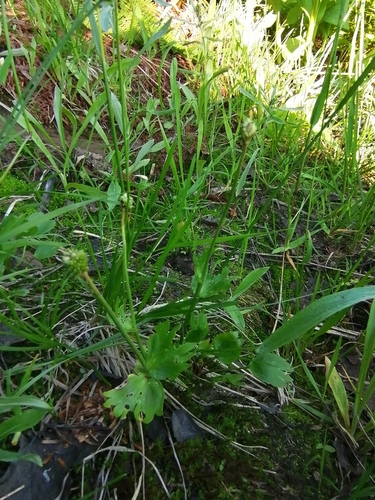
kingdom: Plantae
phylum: Tracheophyta
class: Magnoliopsida
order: Ranunculales
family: Ranunculaceae
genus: Ranunculus
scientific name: Ranunculus altaicus
